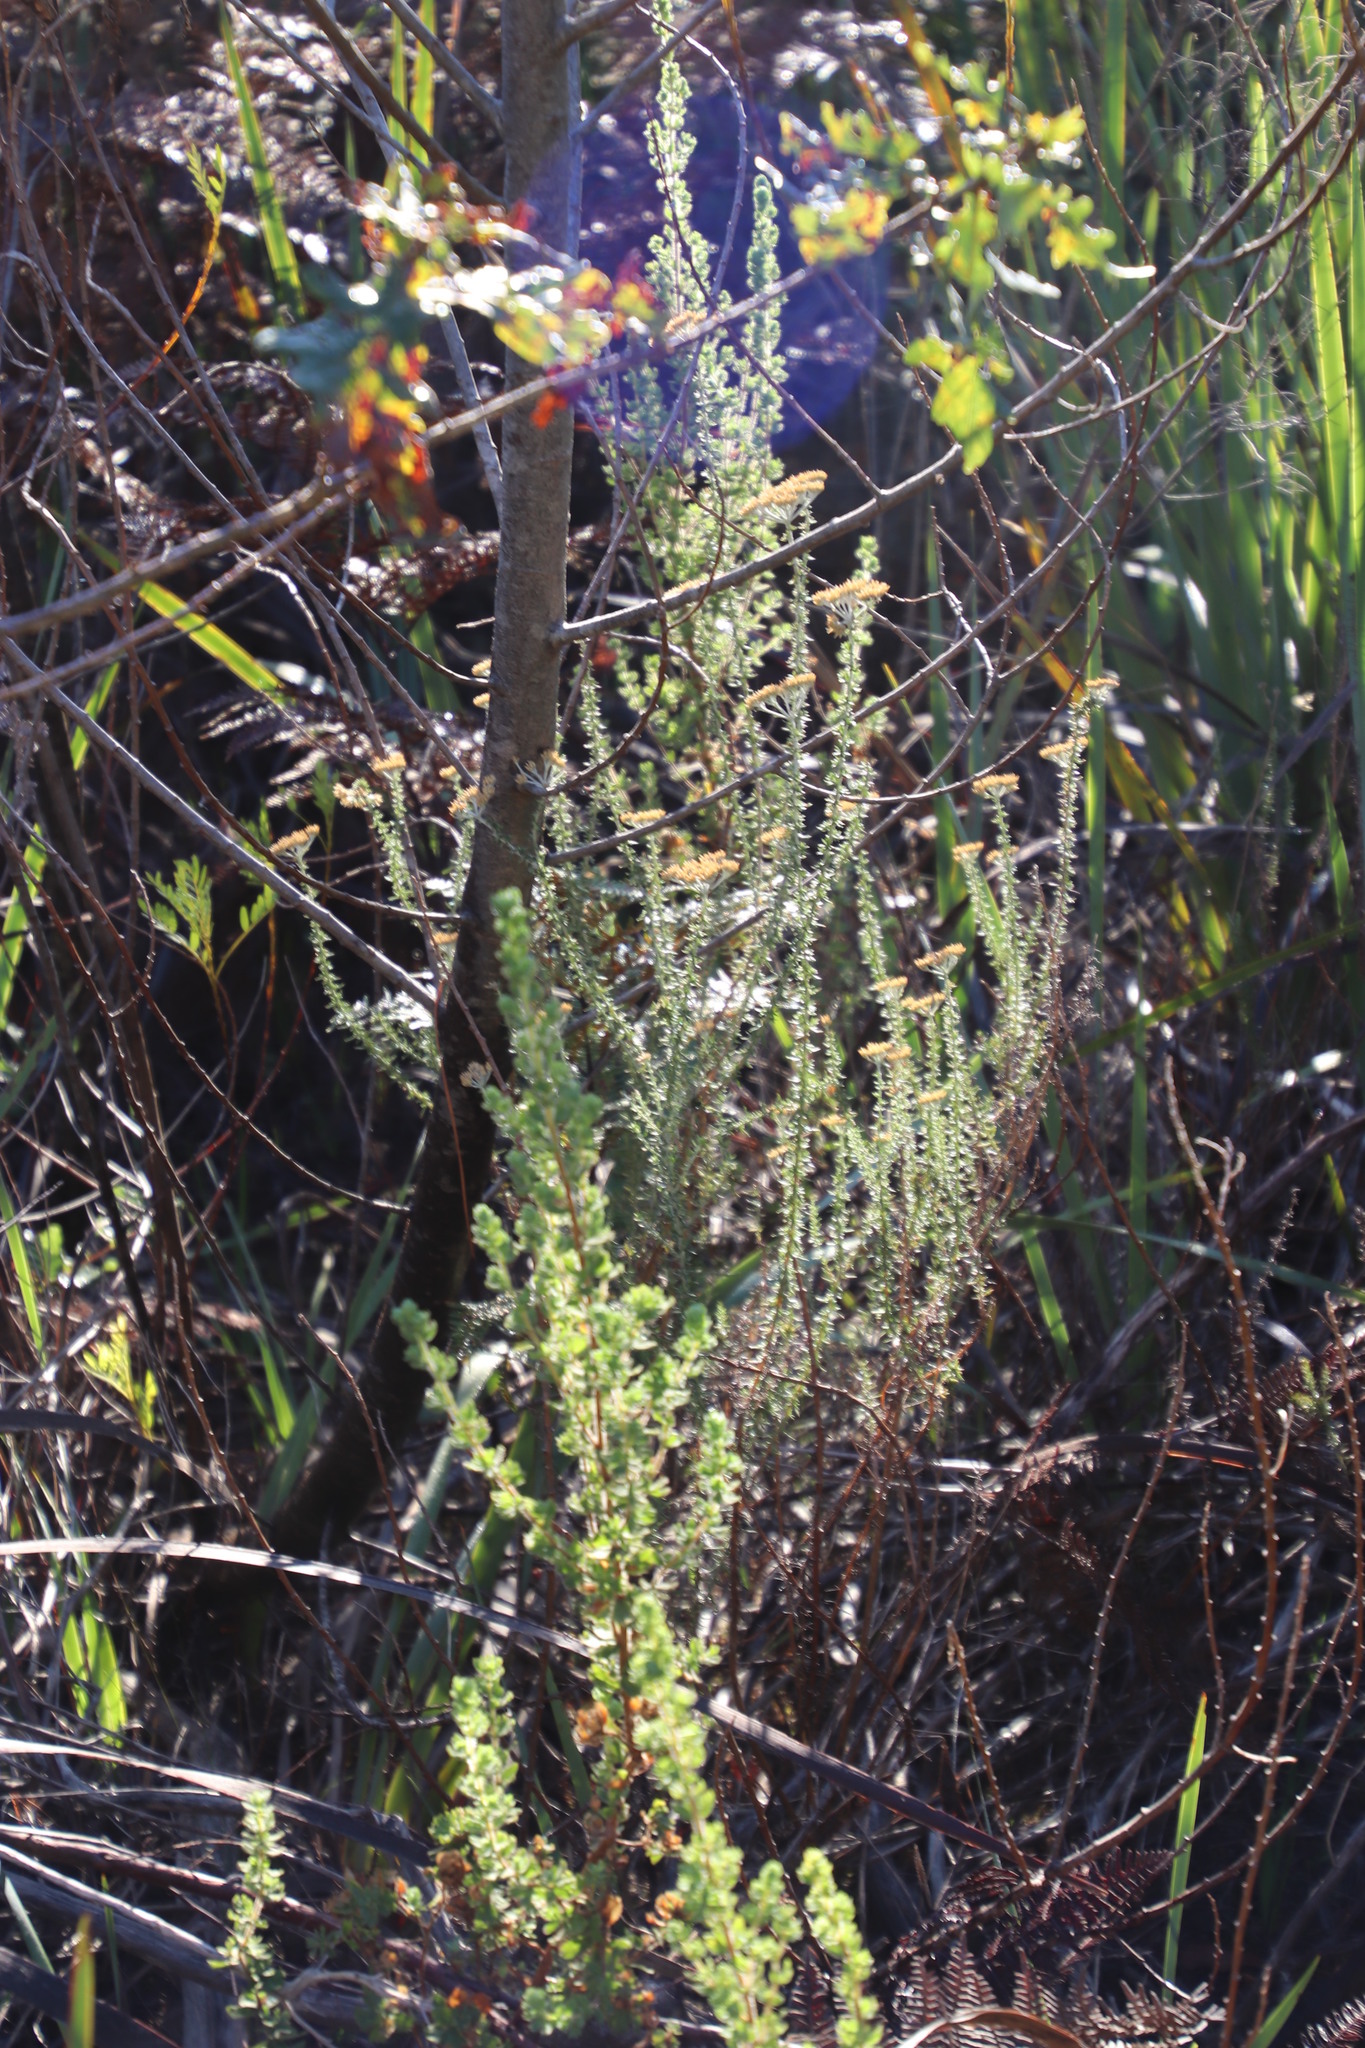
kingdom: Plantae
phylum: Tracheophyta
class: Magnoliopsida
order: Asterales
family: Asteraceae
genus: Metalasia
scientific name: Metalasia densa
